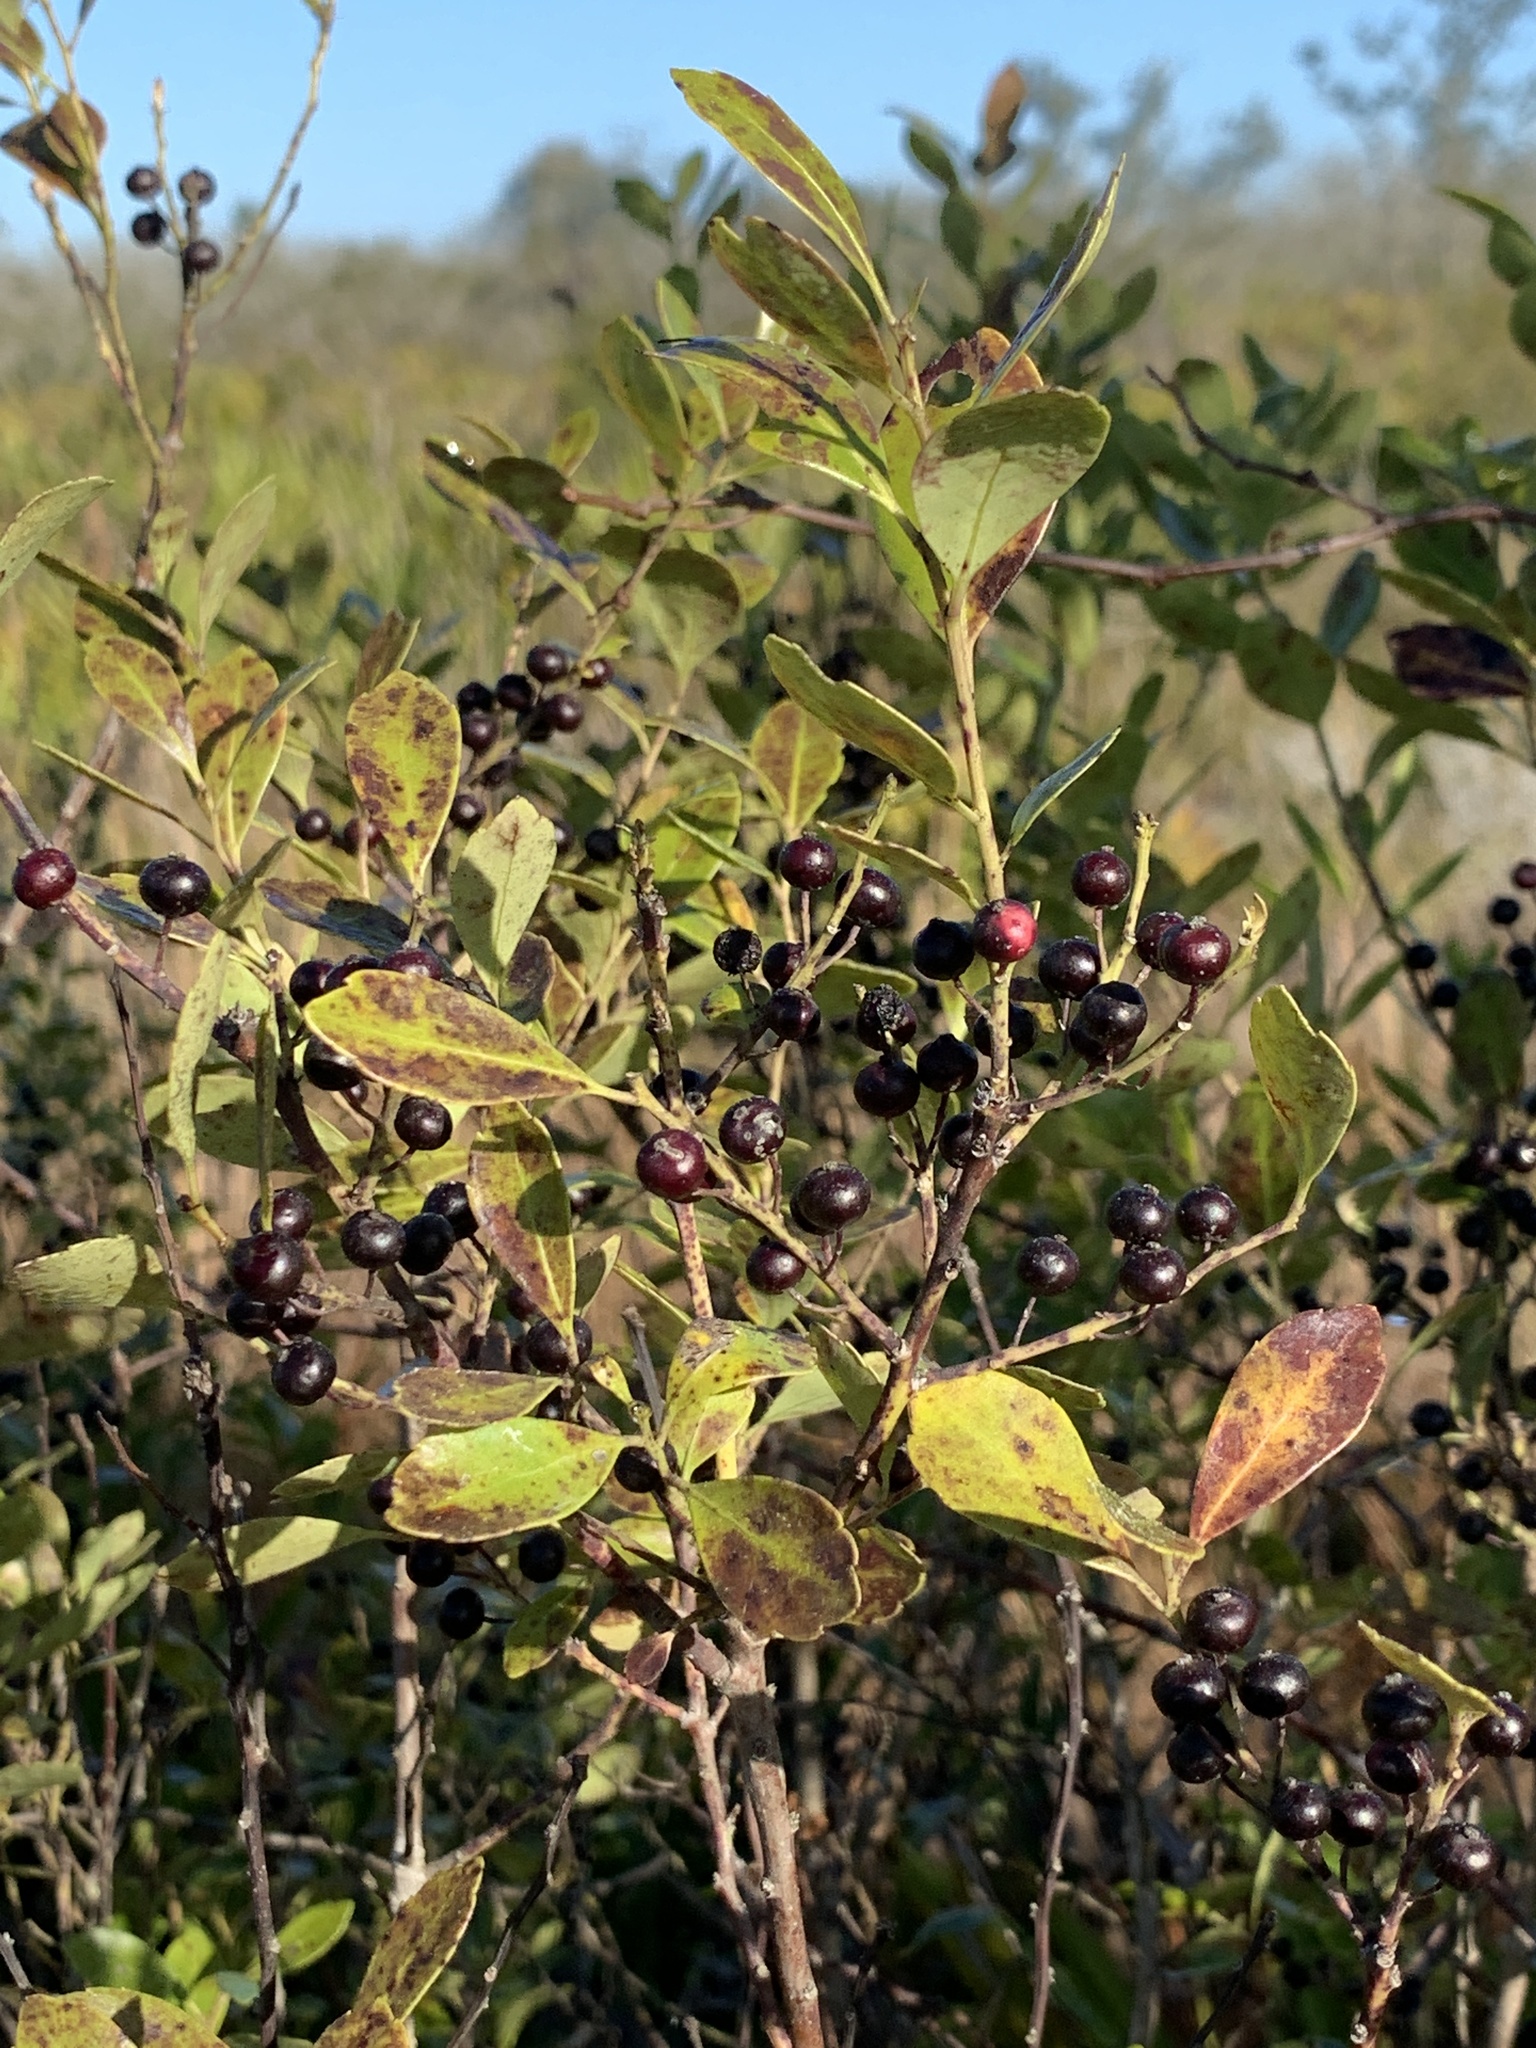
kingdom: Plantae
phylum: Tracheophyta
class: Magnoliopsida
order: Aquifoliales
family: Aquifoliaceae
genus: Ilex
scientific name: Ilex glabra
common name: Bitter gallberry
